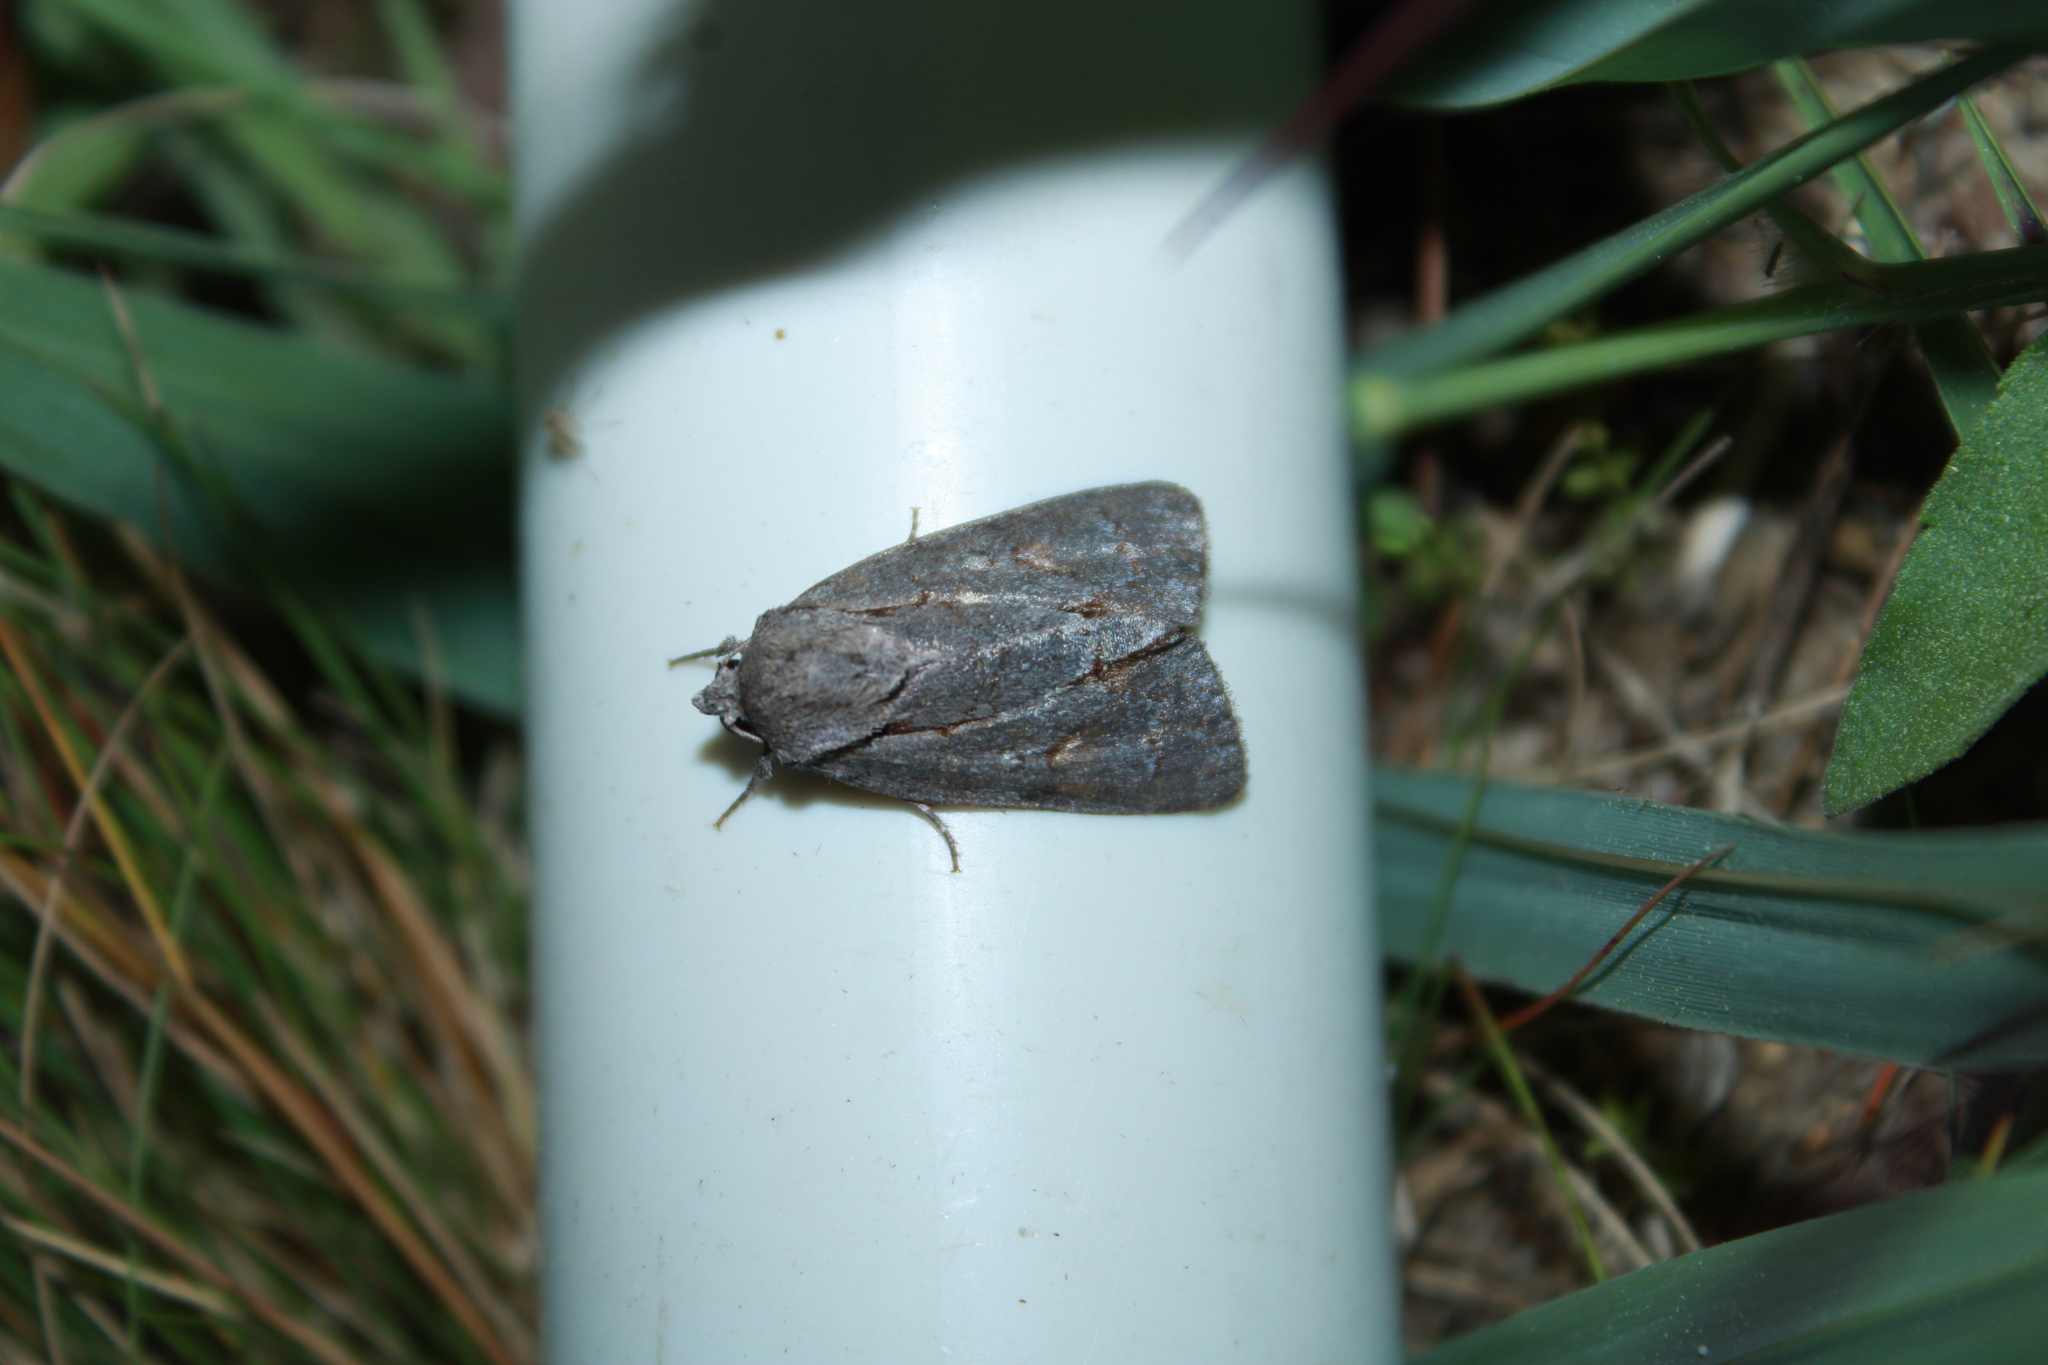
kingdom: Animalia
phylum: Arthropoda
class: Insecta
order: Lepidoptera
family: Noctuidae
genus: Acronicta
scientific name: Acronicta tritona
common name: Triton dagger
